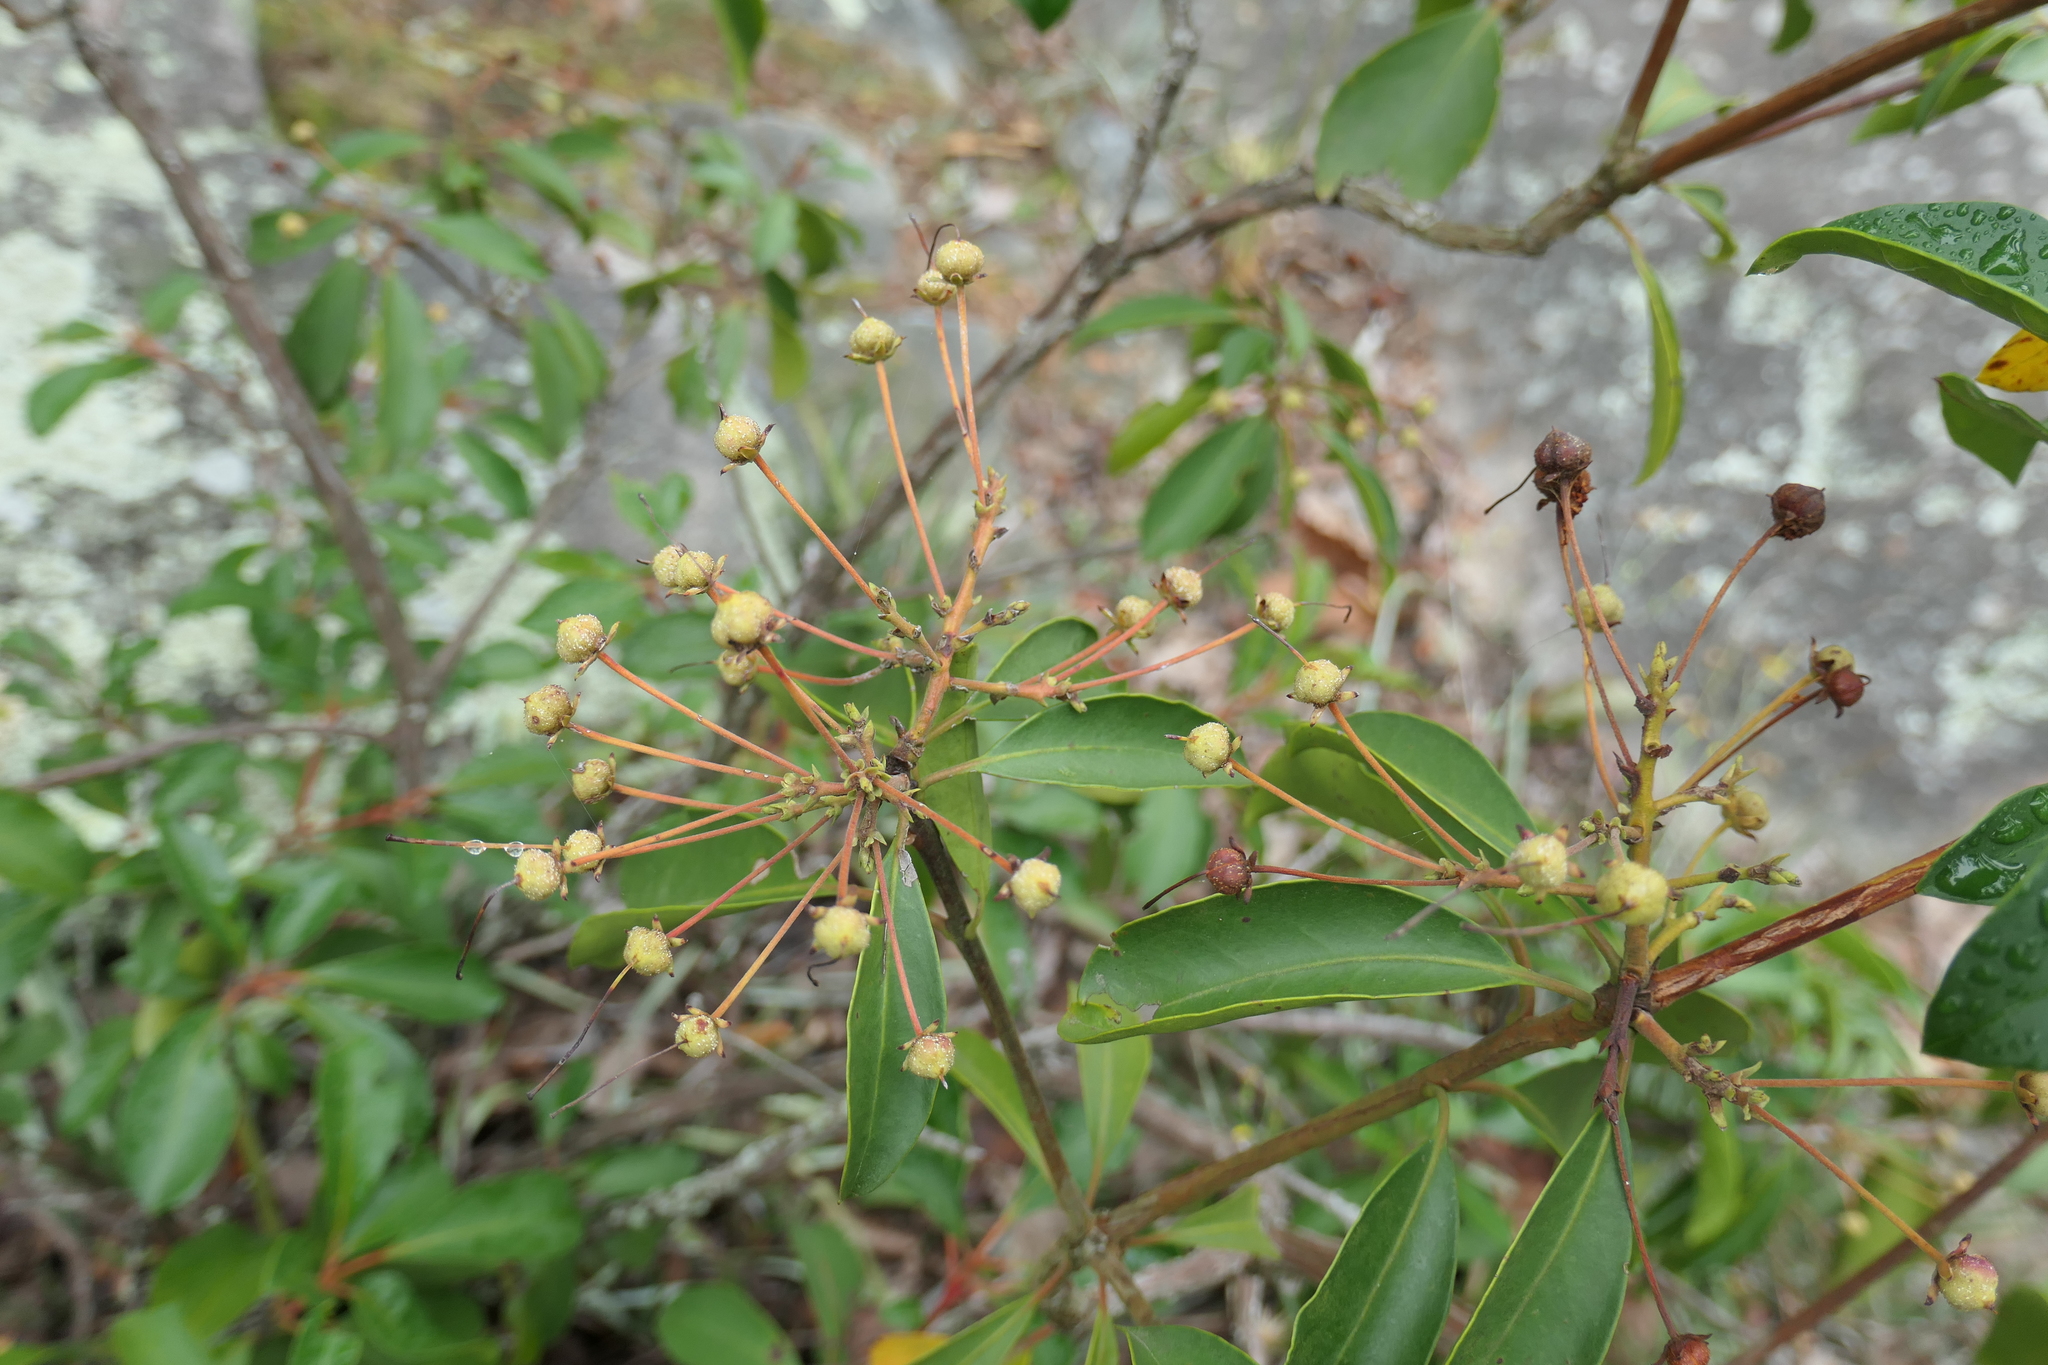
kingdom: Plantae
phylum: Tracheophyta
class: Magnoliopsida
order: Ericales
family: Ericaceae
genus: Kalmia
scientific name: Kalmia latifolia
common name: Mountain-laurel
